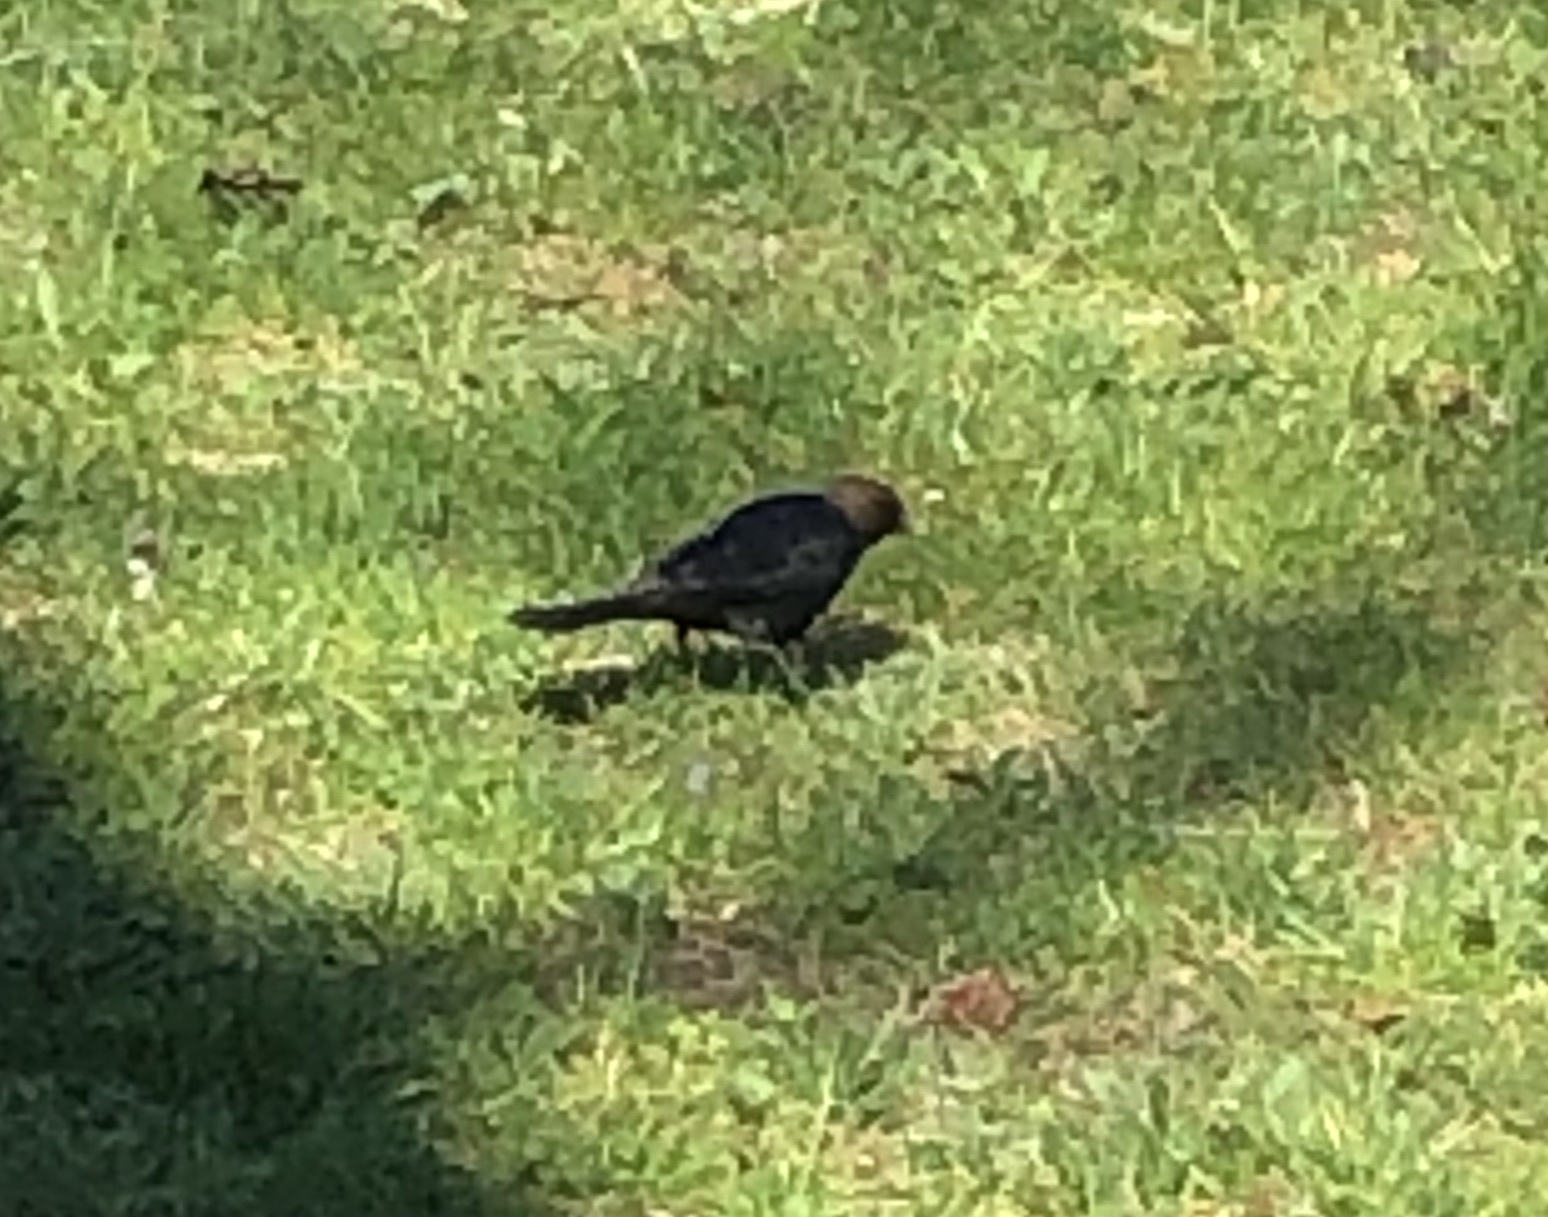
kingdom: Animalia
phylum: Chordata
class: Aves
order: Passeriformes
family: Icteridae
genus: Molothrus
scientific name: Molothrus ater
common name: Brown-headed cowbird
